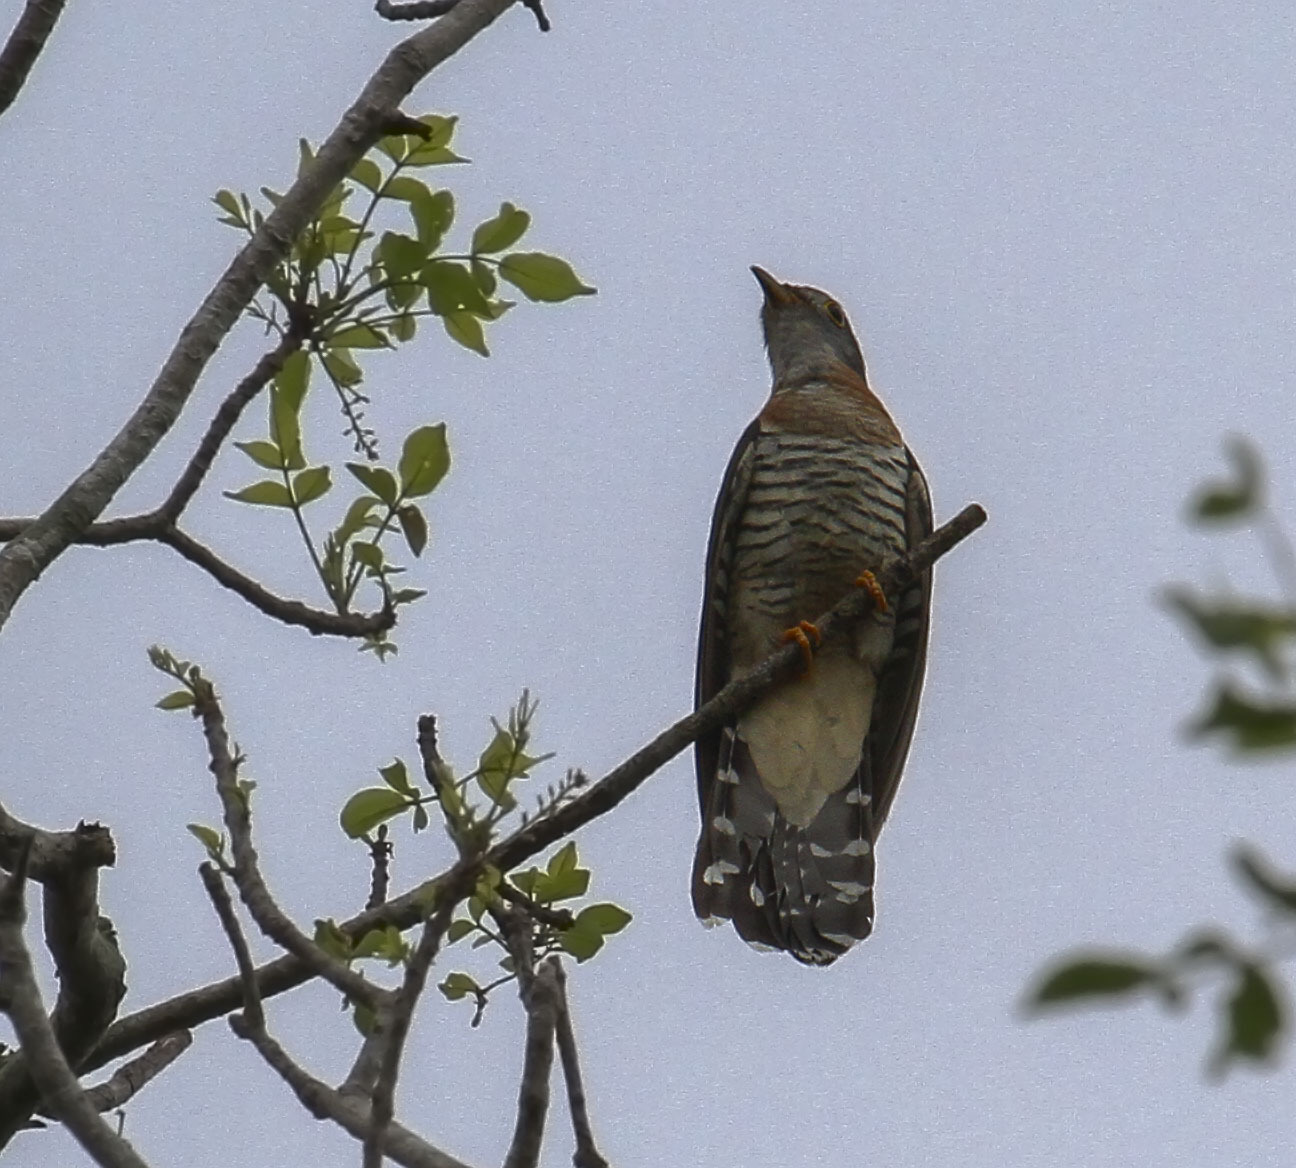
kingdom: Animalia
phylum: Chordata
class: Aves
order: Cuculiformes
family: Cuculidae
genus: Cuculus
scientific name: Cuculus solitarius
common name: Red-chested cuckoo
